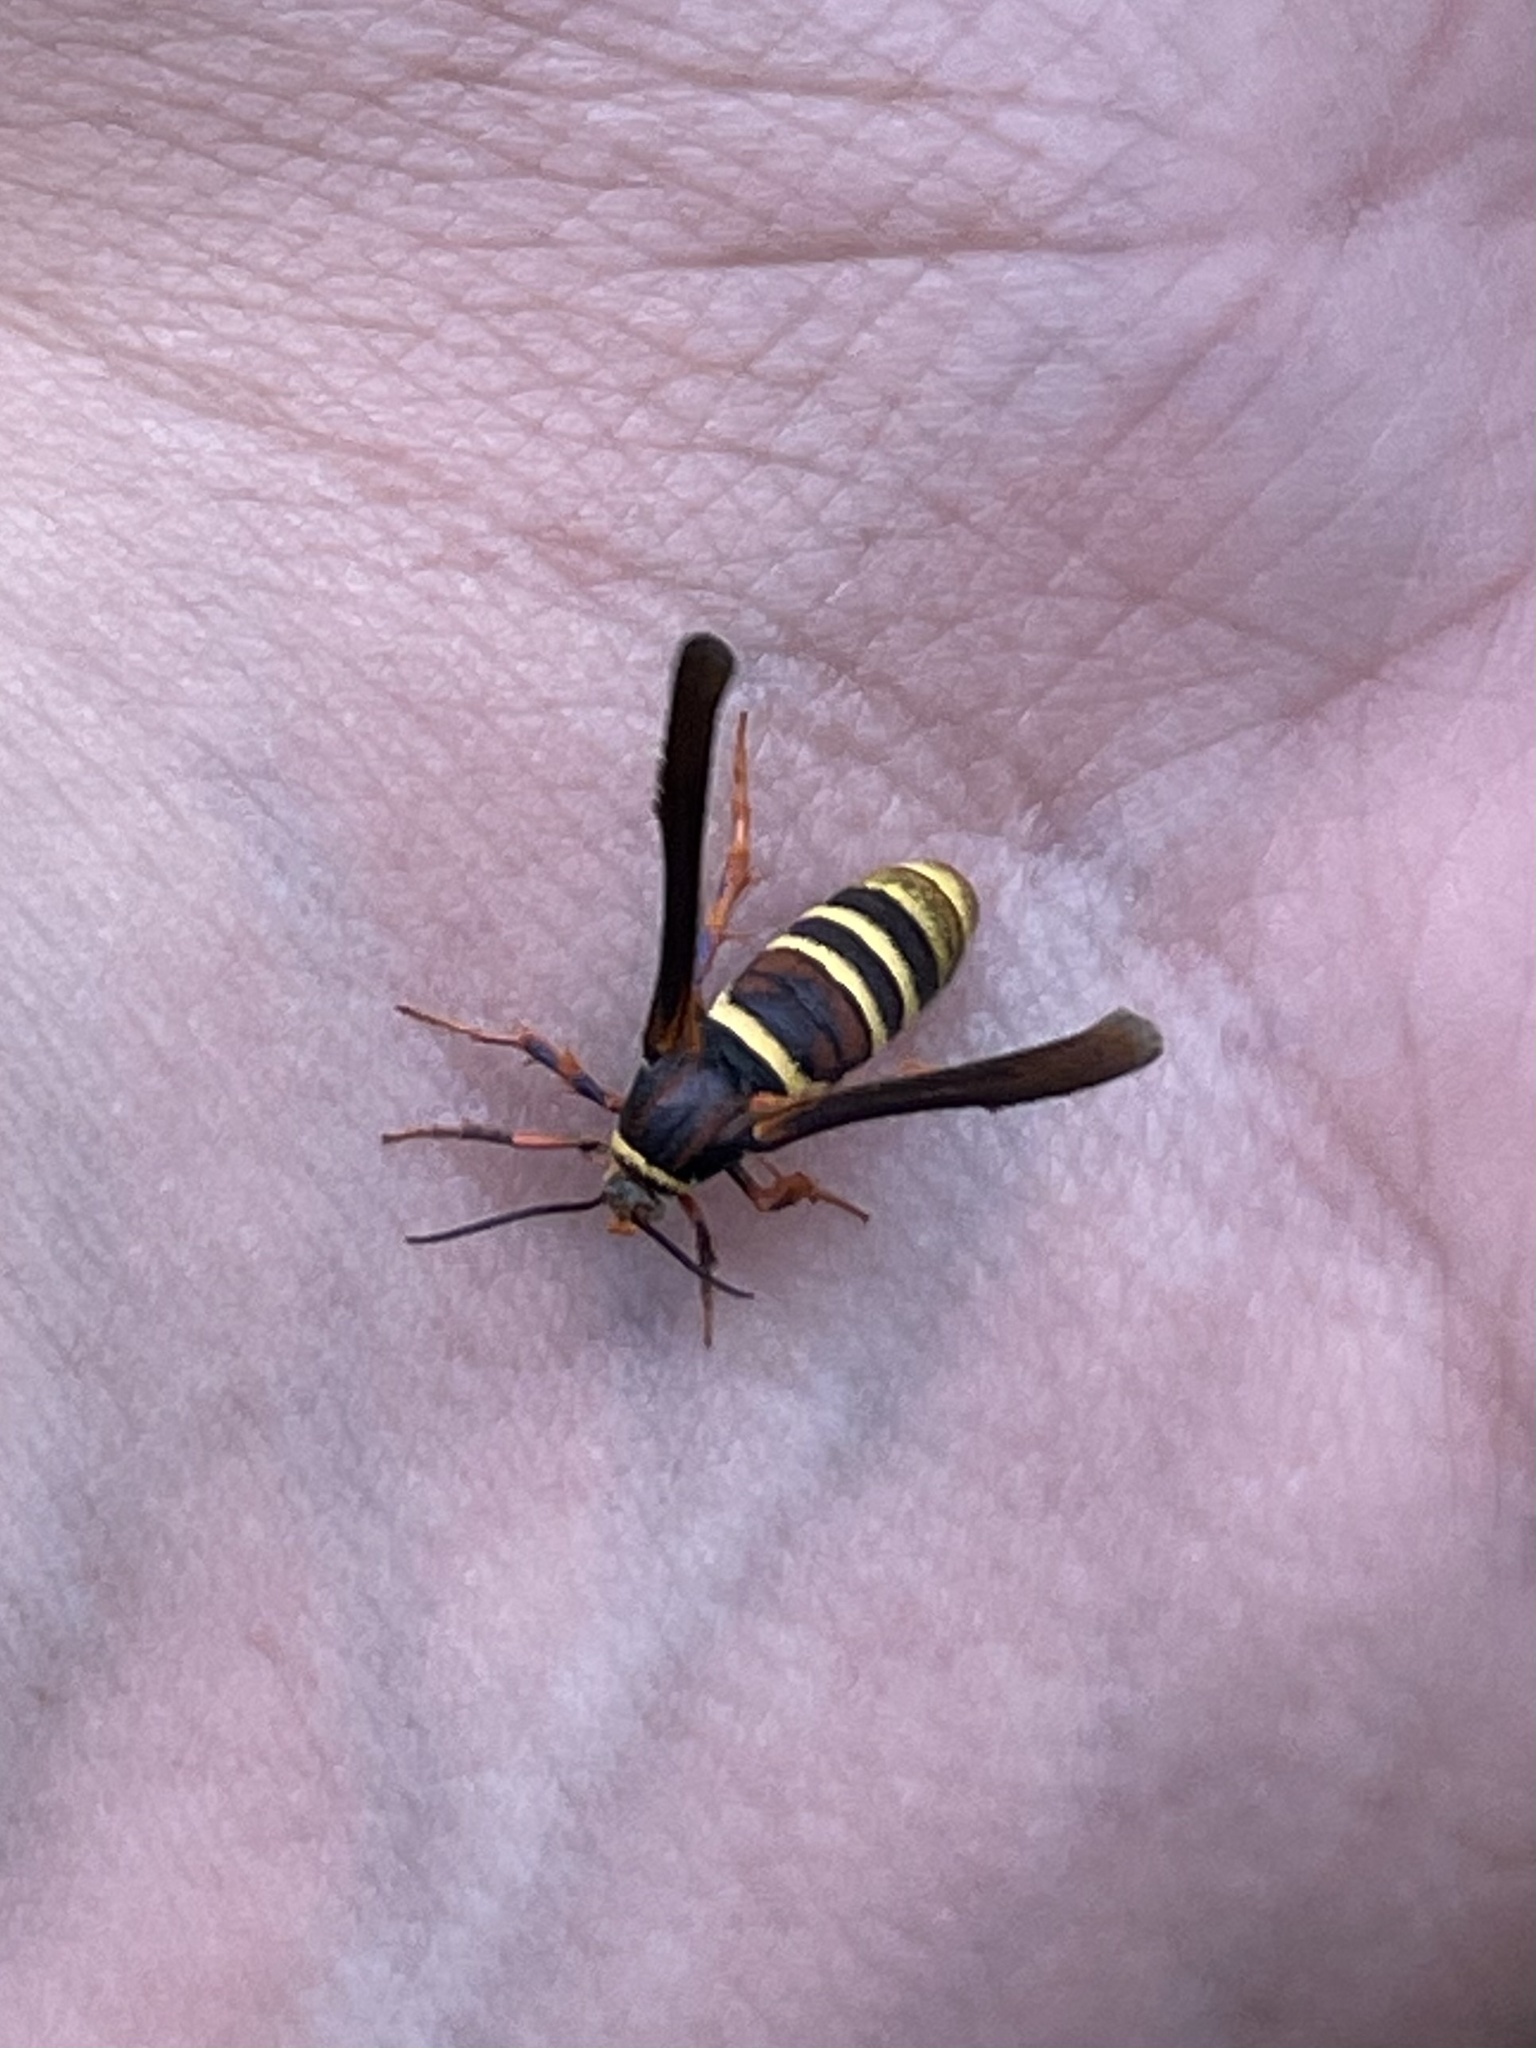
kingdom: Animalia
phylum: Arthropoda
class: Insecta
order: Lepidoptera
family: Sesiidae
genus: Zenodoxus
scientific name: Zenodoxus palmii
